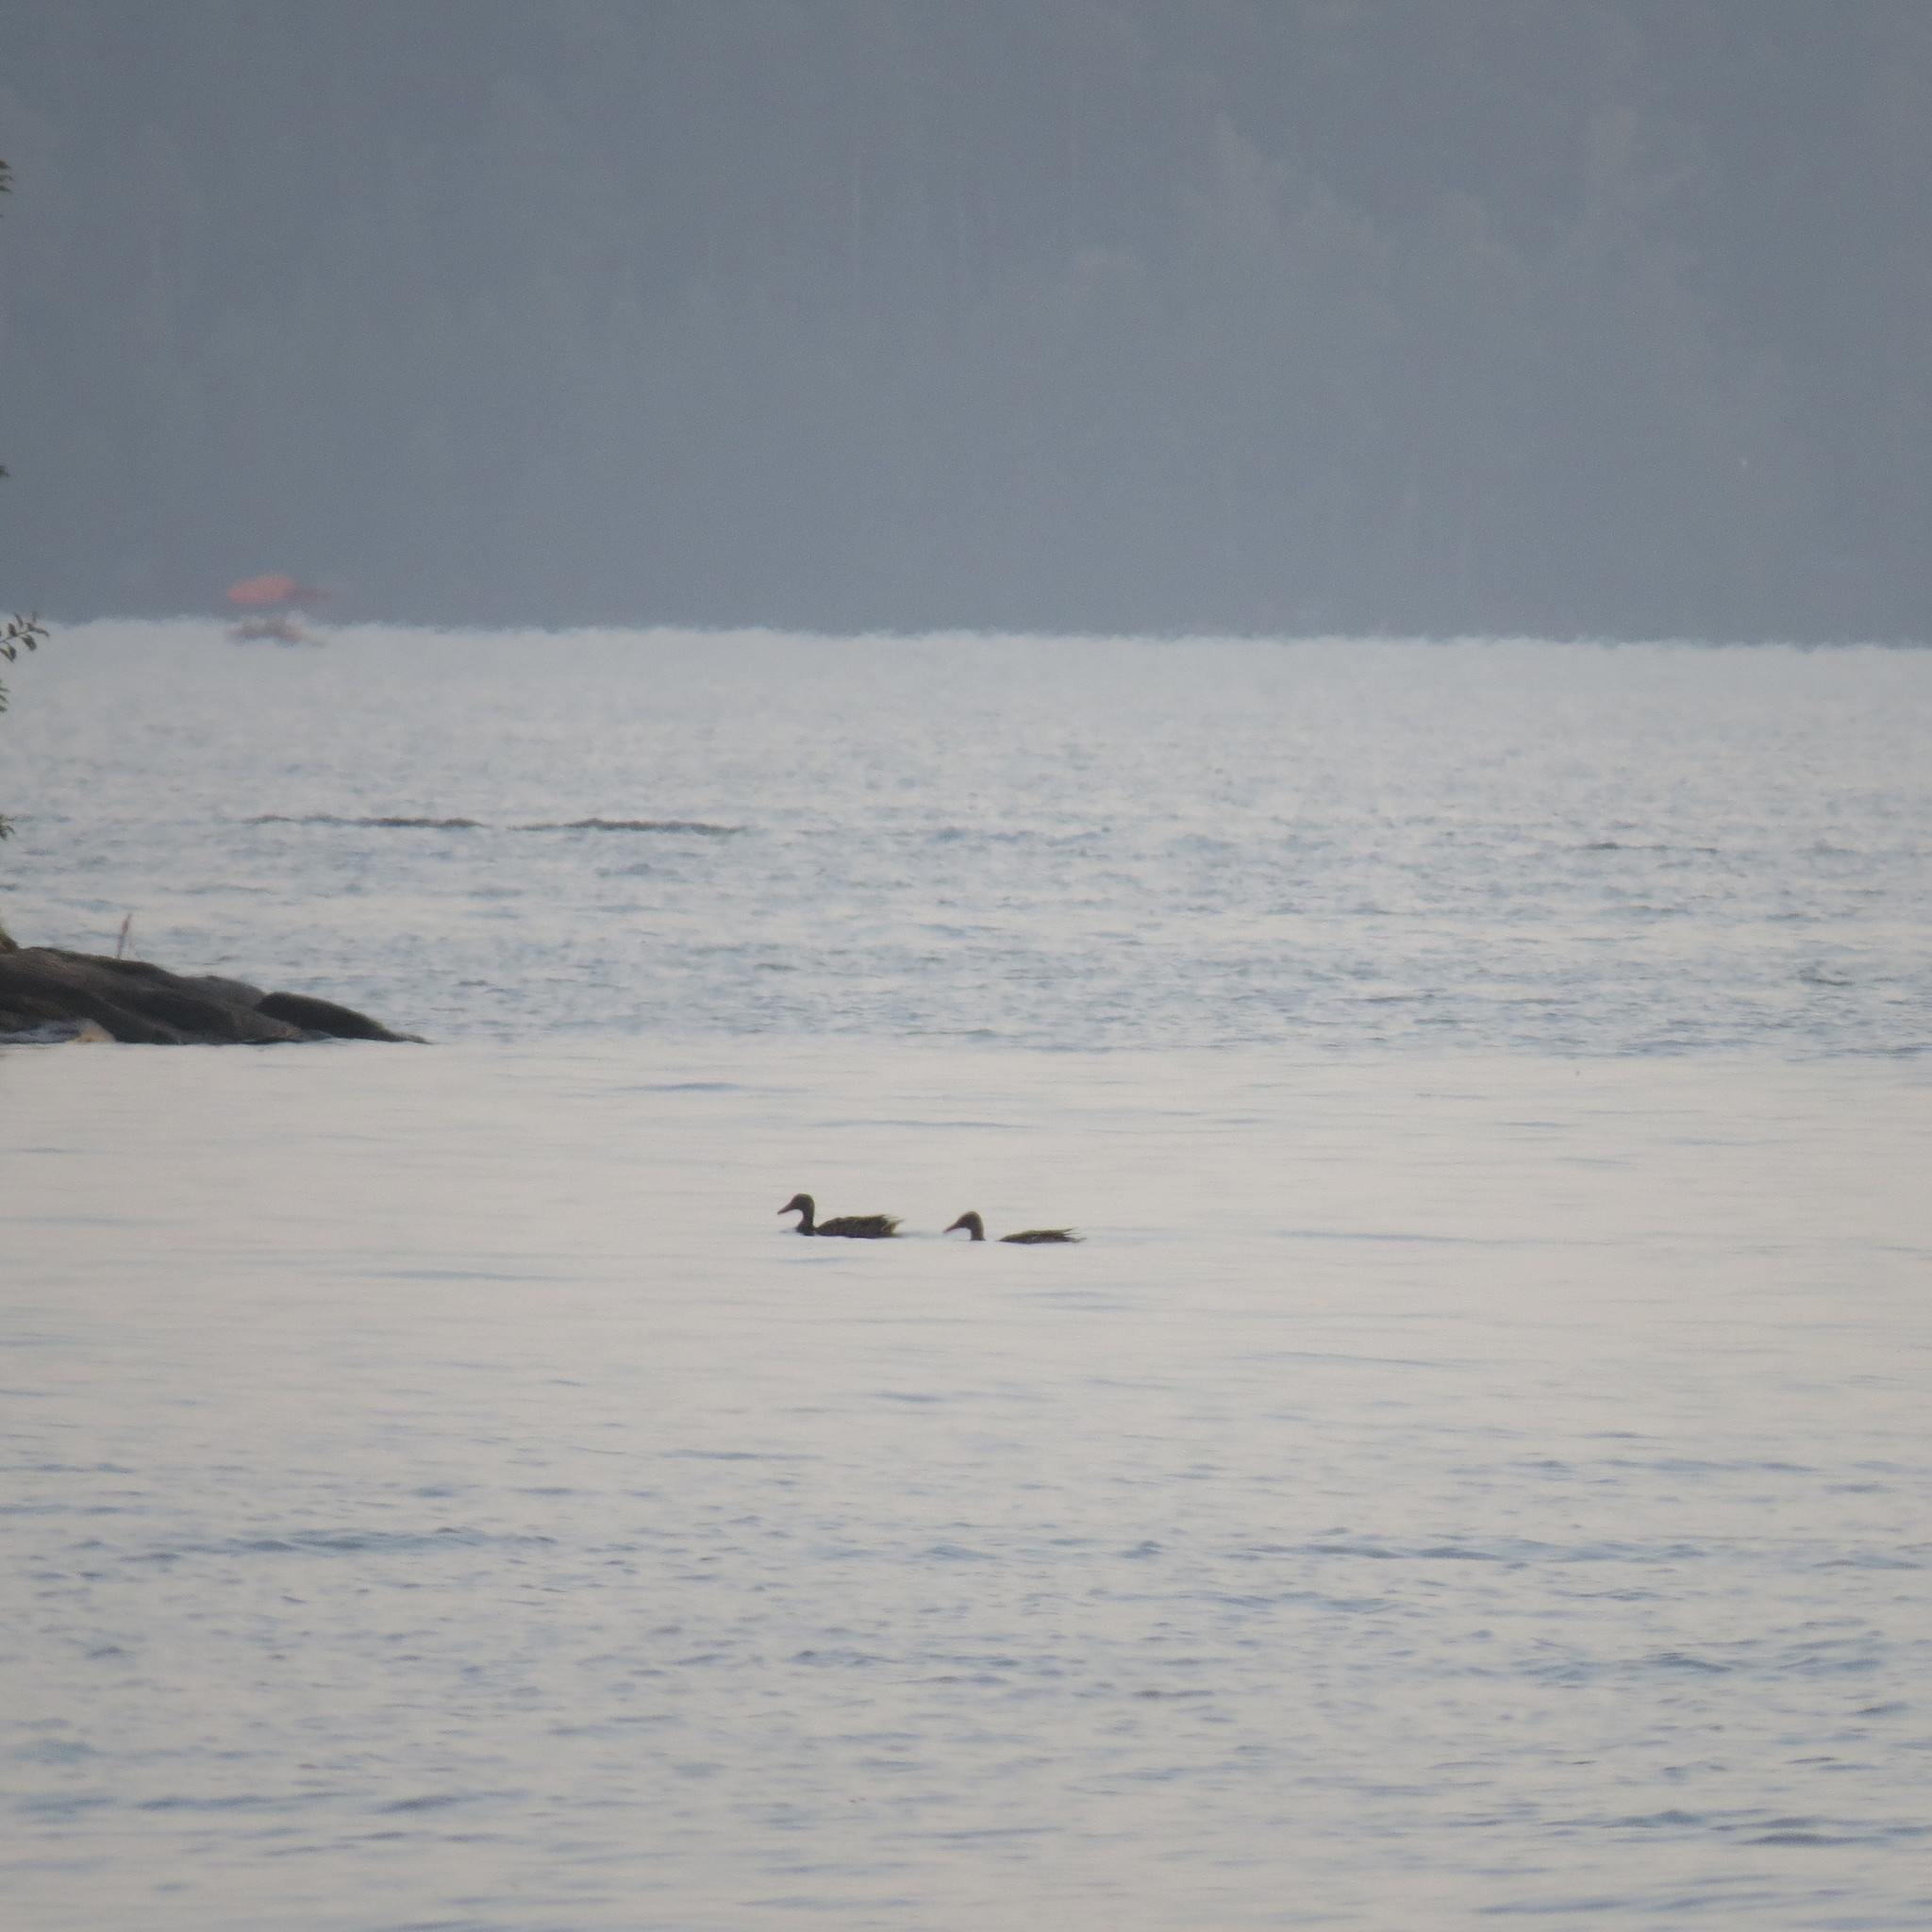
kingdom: Animalia
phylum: Chordata
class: Aves
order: Anseriformes
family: Anatidae
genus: Anas
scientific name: Anas platyrhynchos
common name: Mallard
